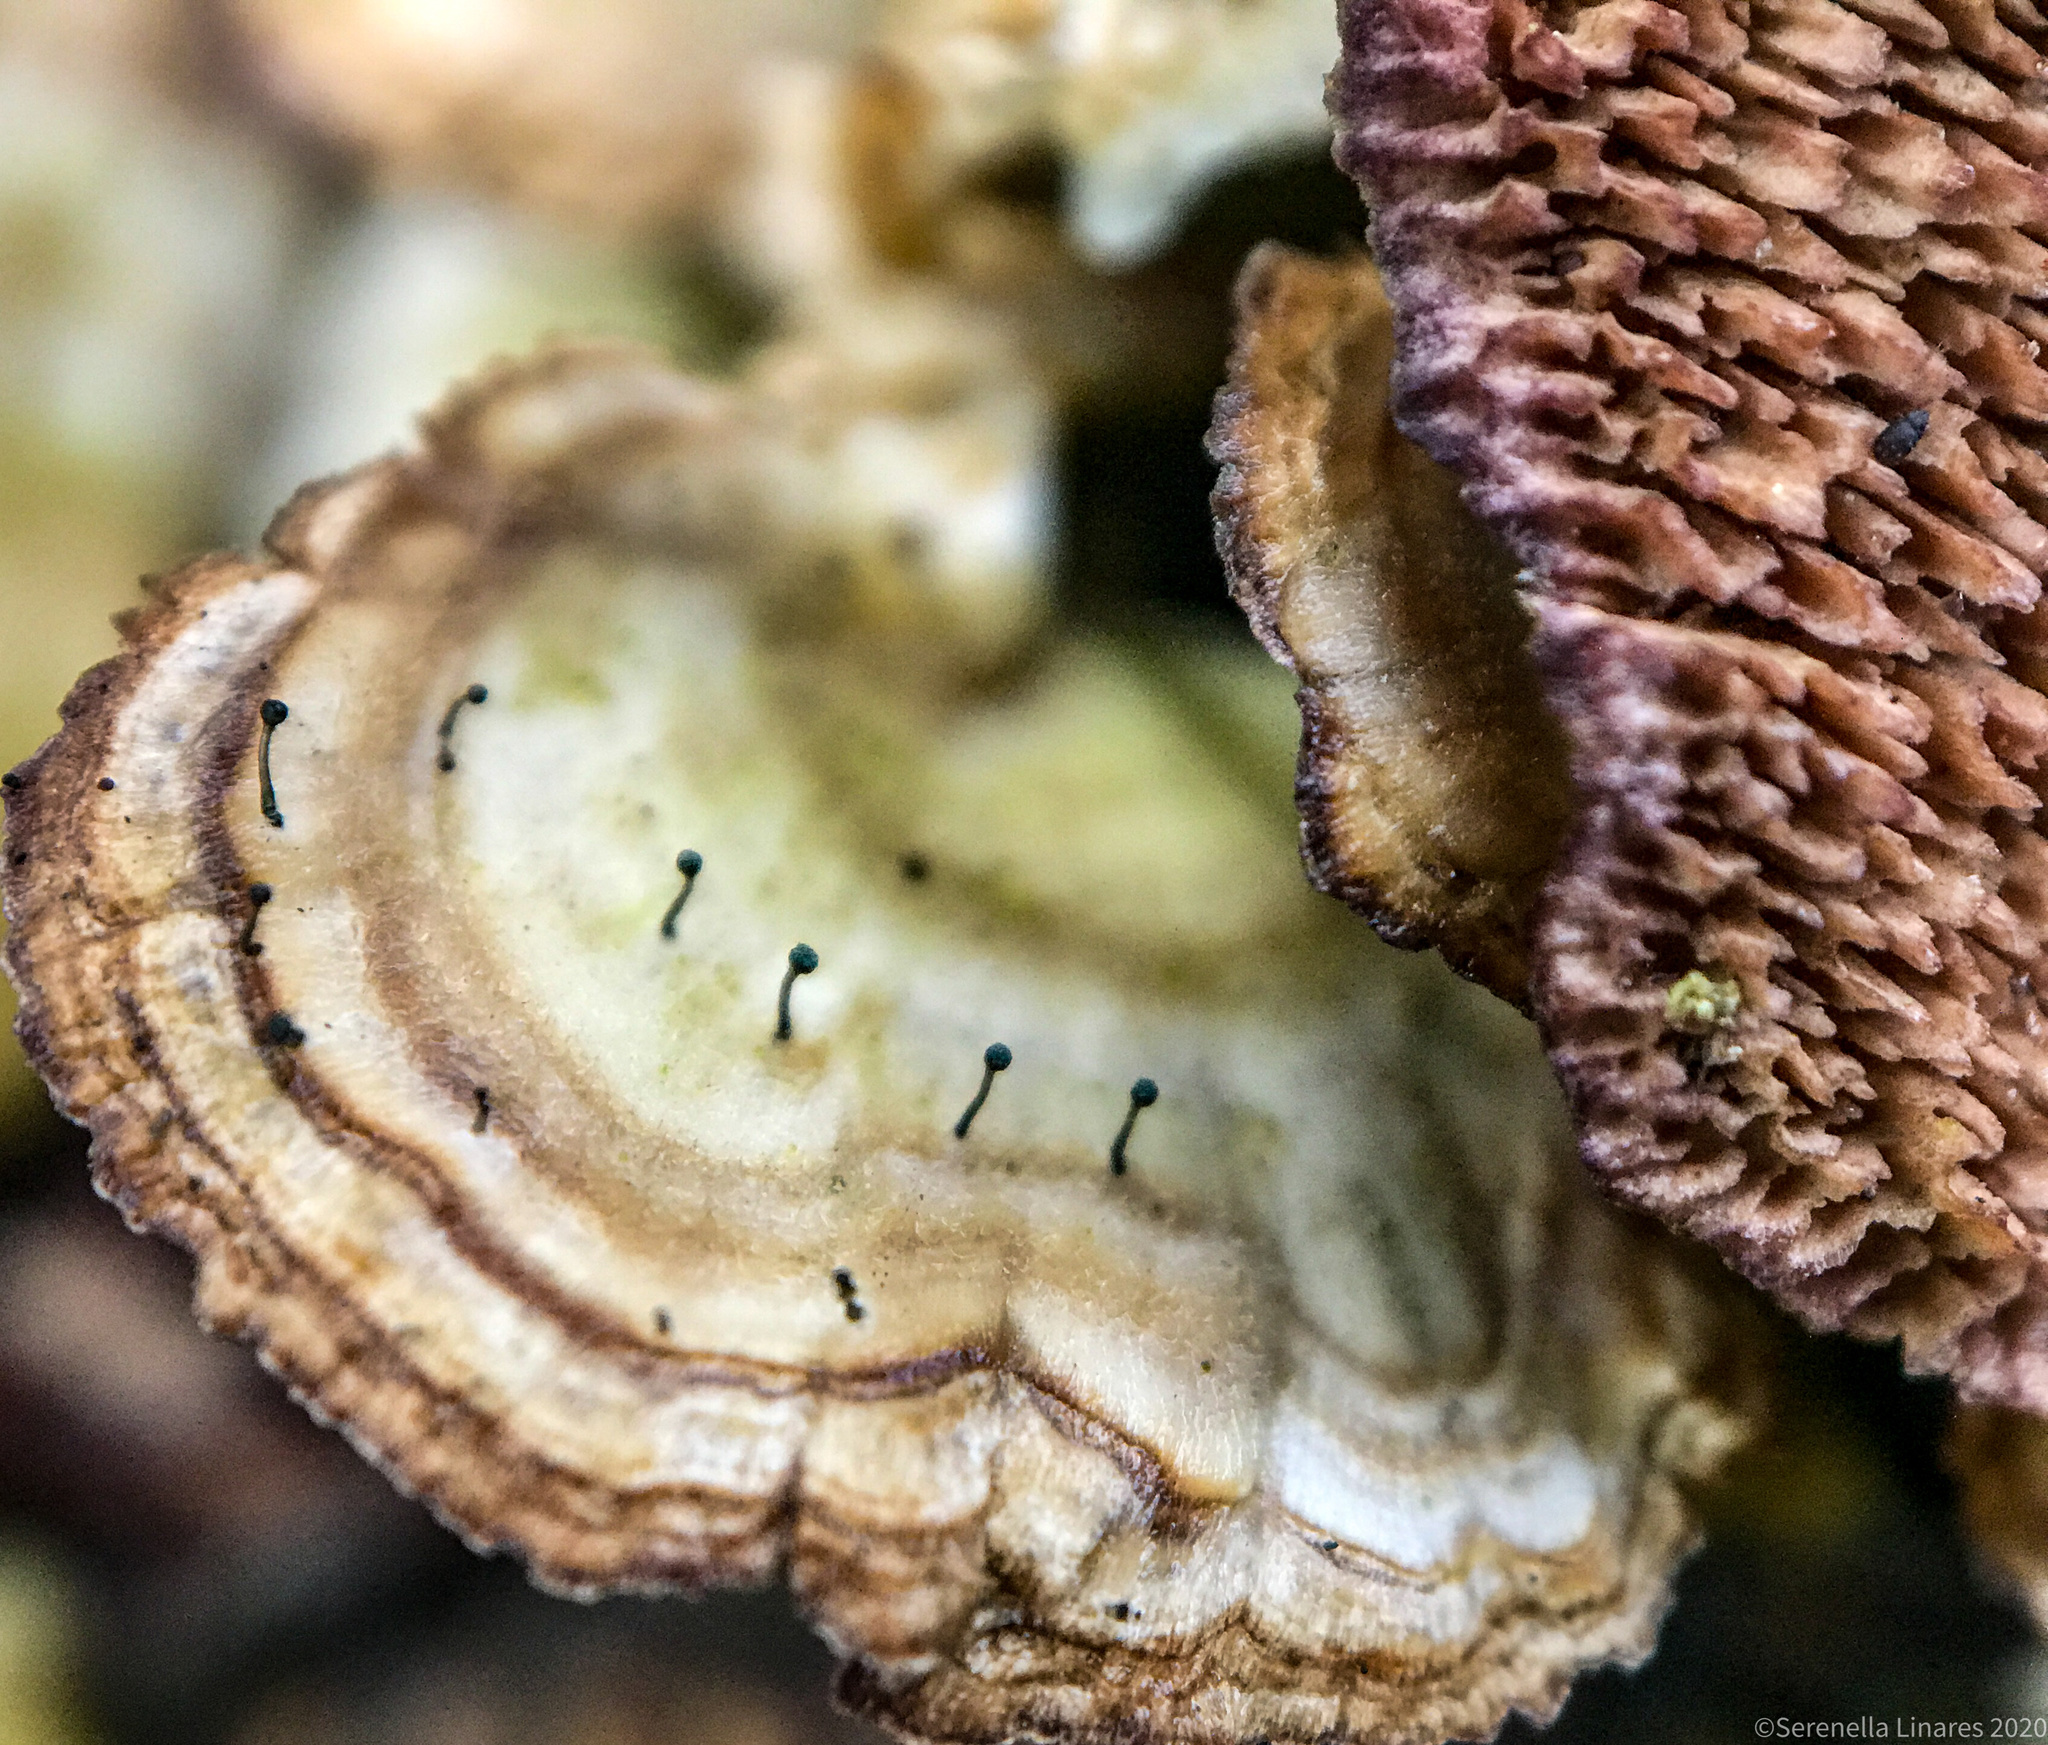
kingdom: Fungi
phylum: Ascomycota
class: Eurotiomycetes
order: Mycocaliciales
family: Mycocaliciaceae
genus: Phaeocalicium
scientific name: Phaeocalicium polyporaeum
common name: Fairy pins
